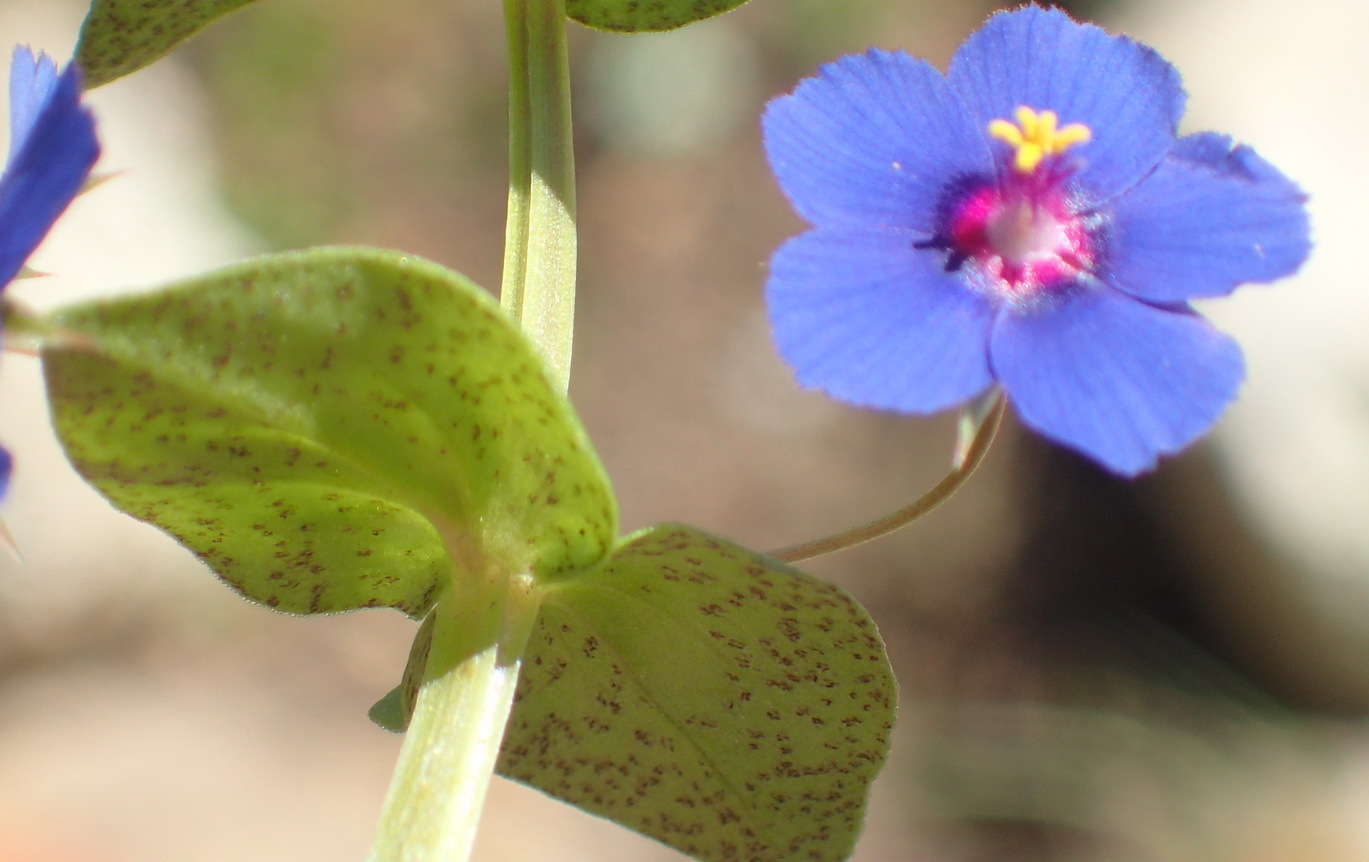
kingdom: Plantae
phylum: Tracheophyta
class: Magnoliopsida
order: Ericales
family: Primulaceae
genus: Lysimachia
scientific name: Lysimachia loeflingii
